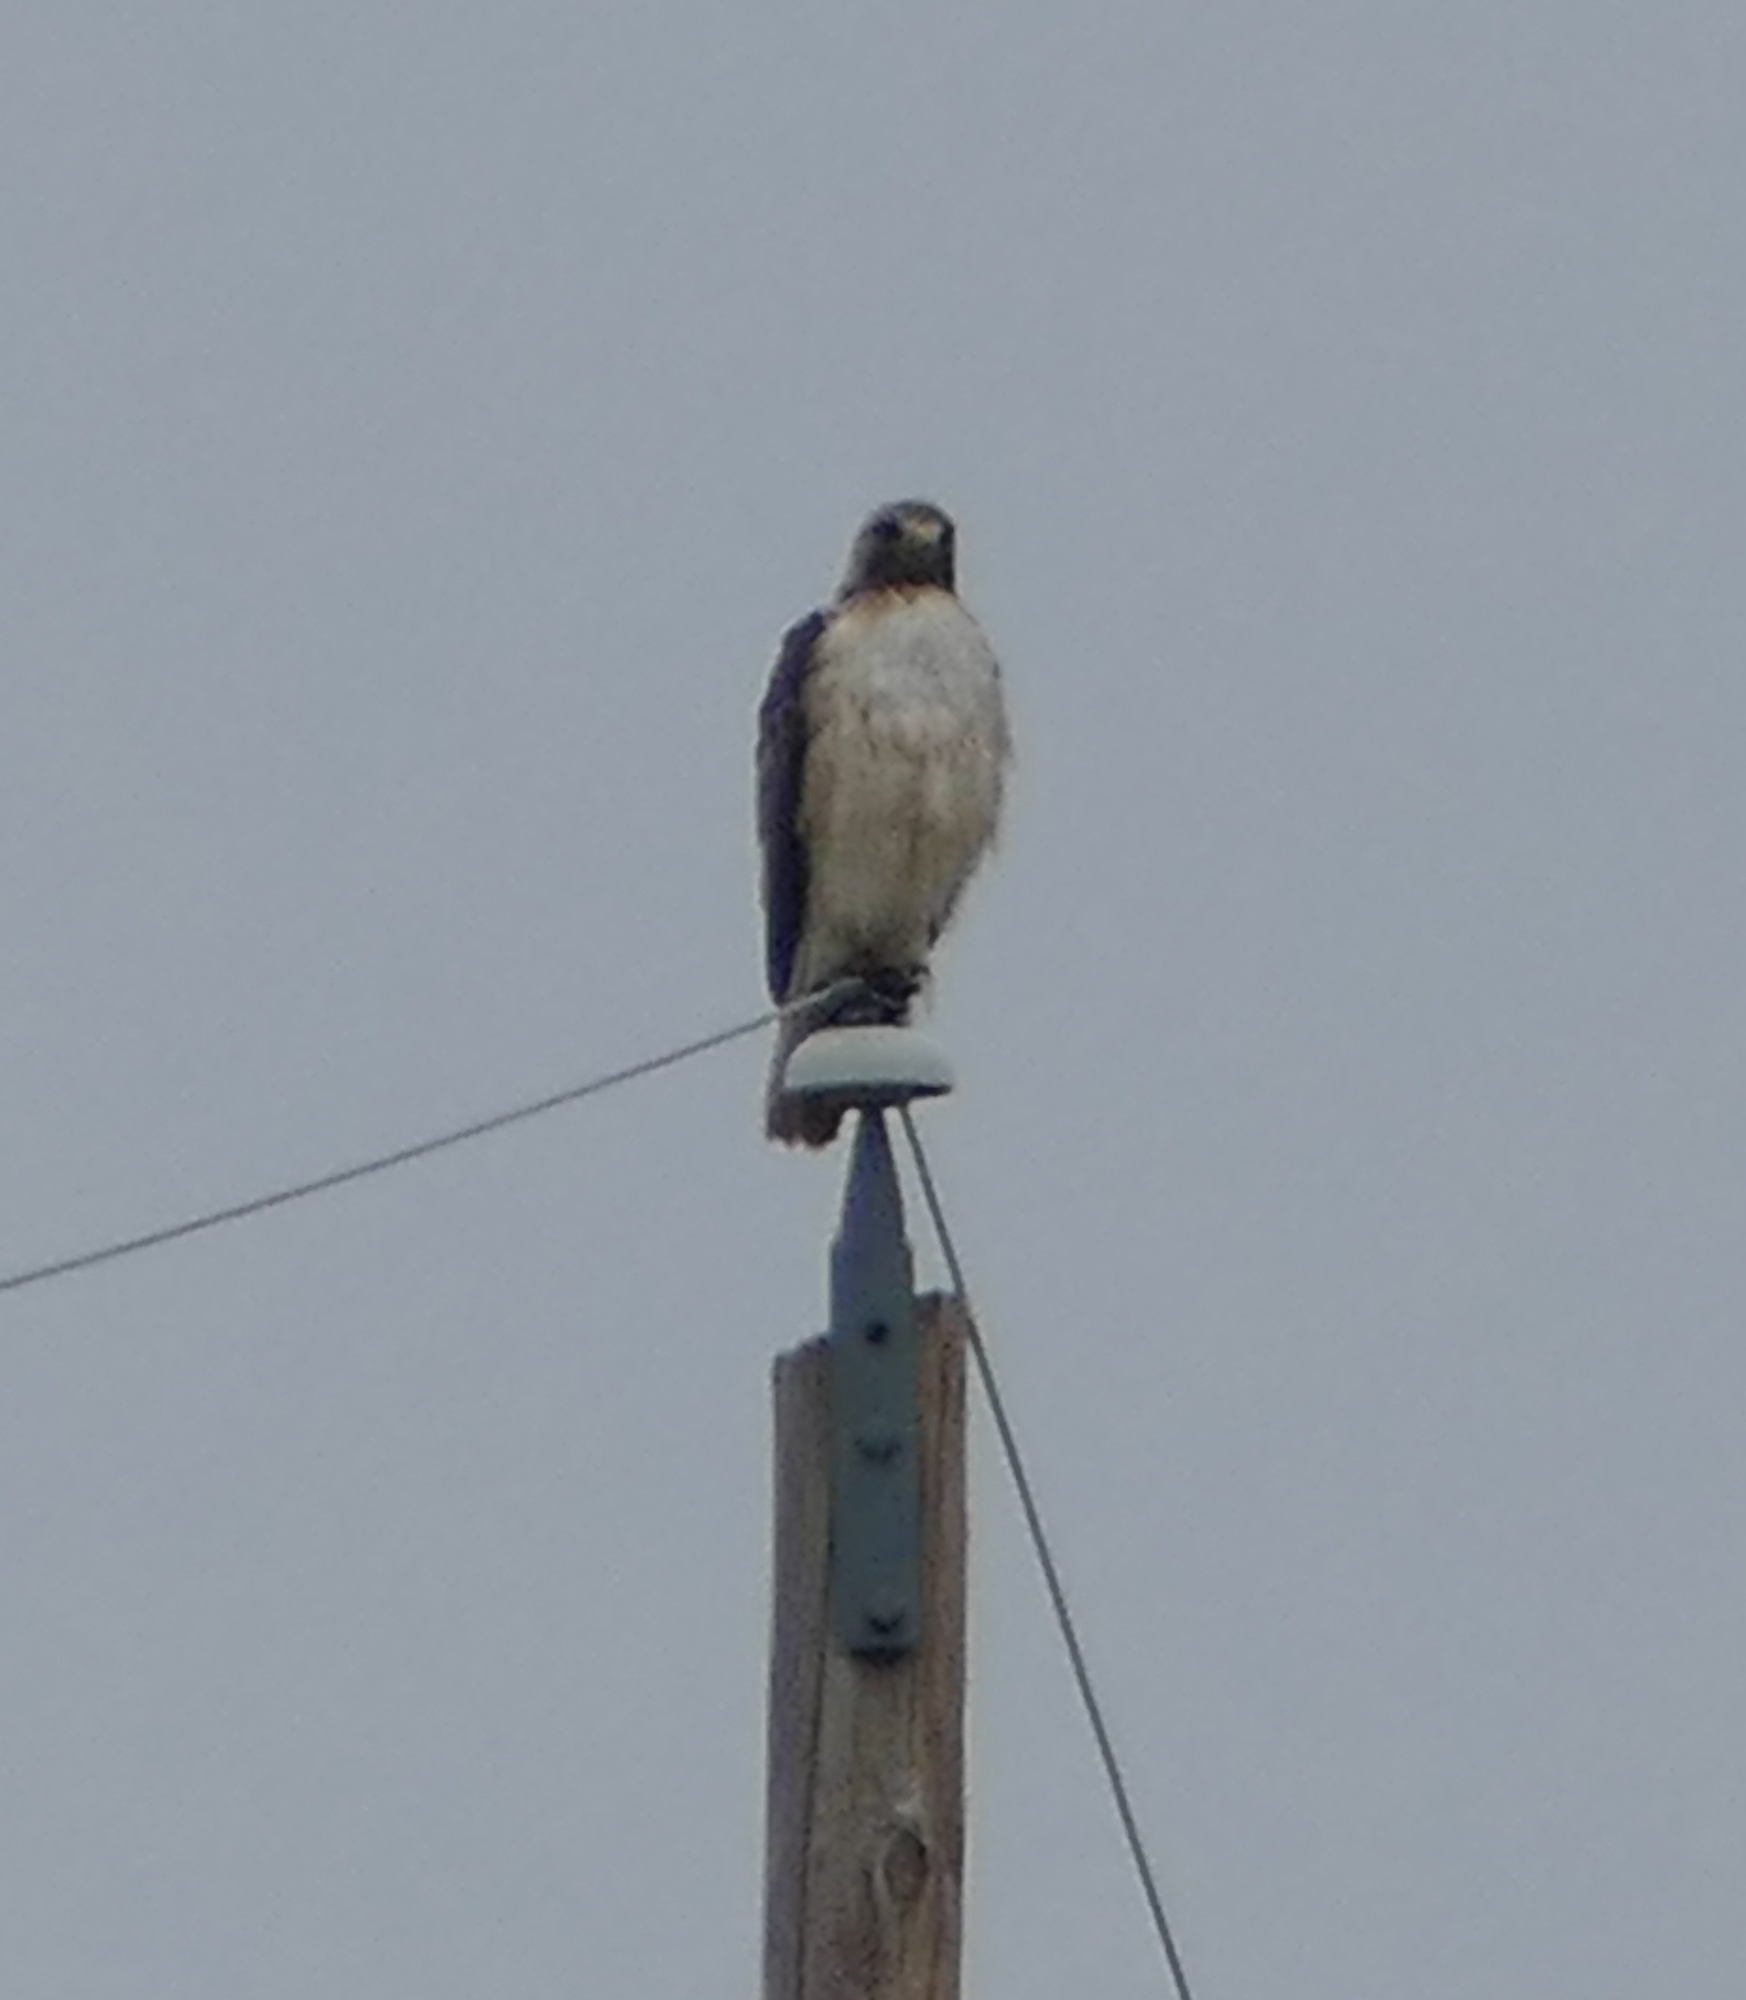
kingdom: Animalia
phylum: Chordata
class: Aves
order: Accipitriformes
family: Accipitridae
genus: Buteo
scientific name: Buteo jamaicensis
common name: Red-tailed hawk
